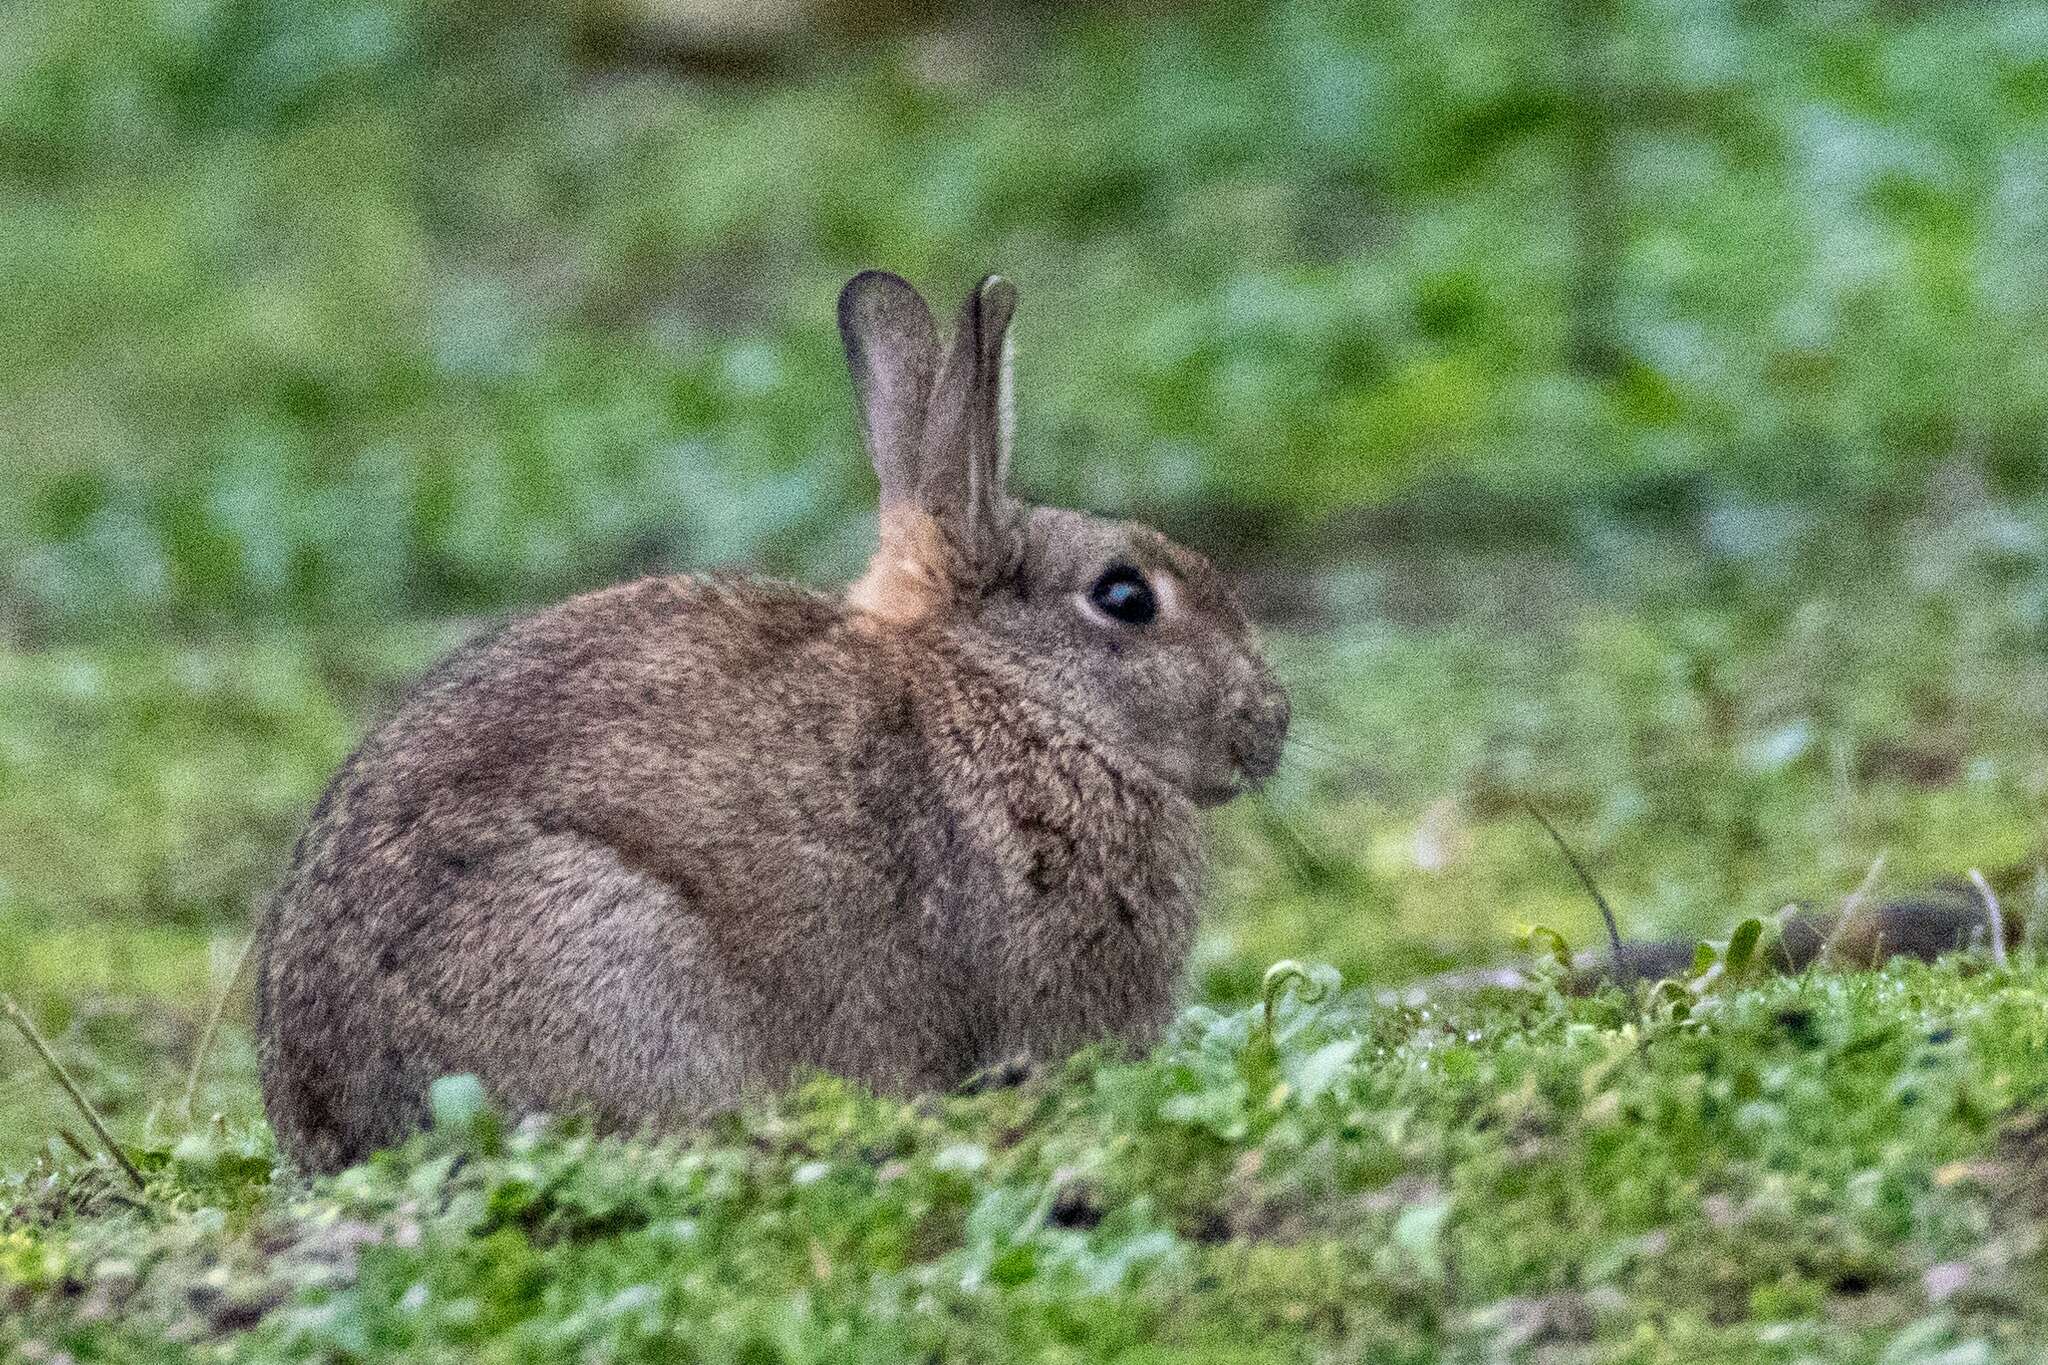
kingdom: Animalia
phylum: Chordata
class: Mammalia
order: Lagomorpha
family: Leporidae
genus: Oryctolagus
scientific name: Oryctolagus cuniculus
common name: European rabbit
